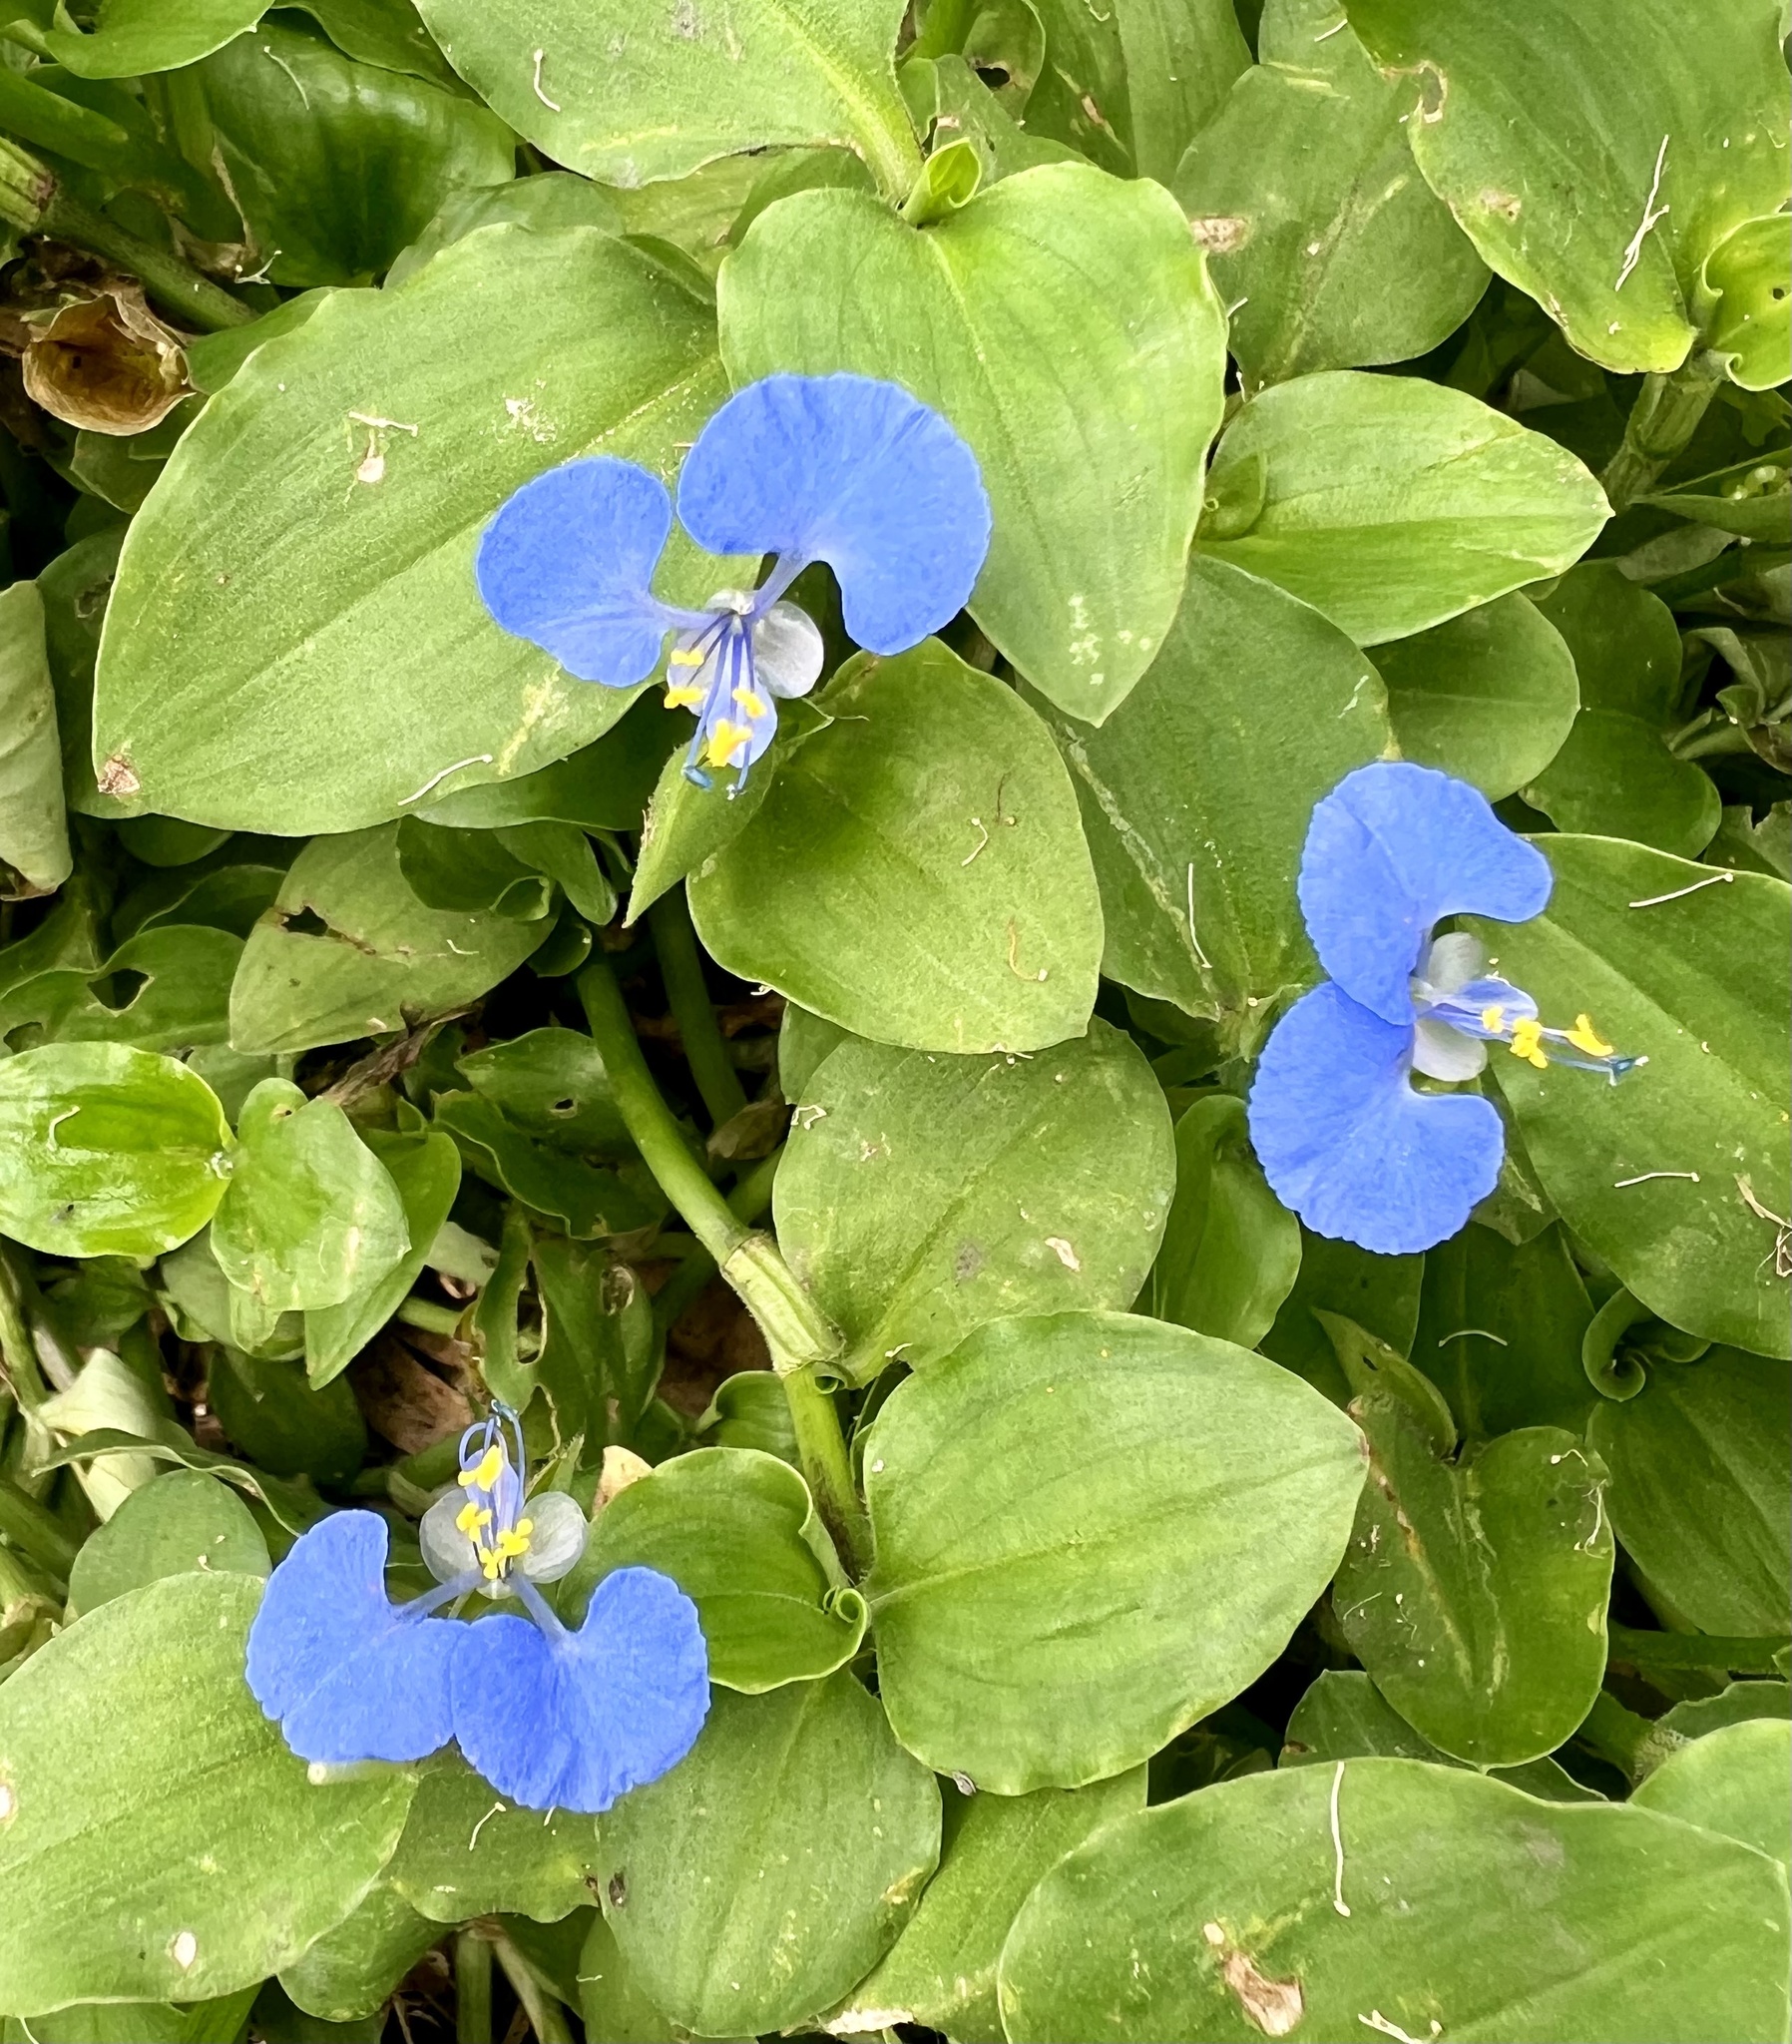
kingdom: Plantae
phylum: Tracheophyta
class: Liliopsida
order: Commelinales
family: Commelinaceae
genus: Commelina
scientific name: Commelina benghalensis
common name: Jio
